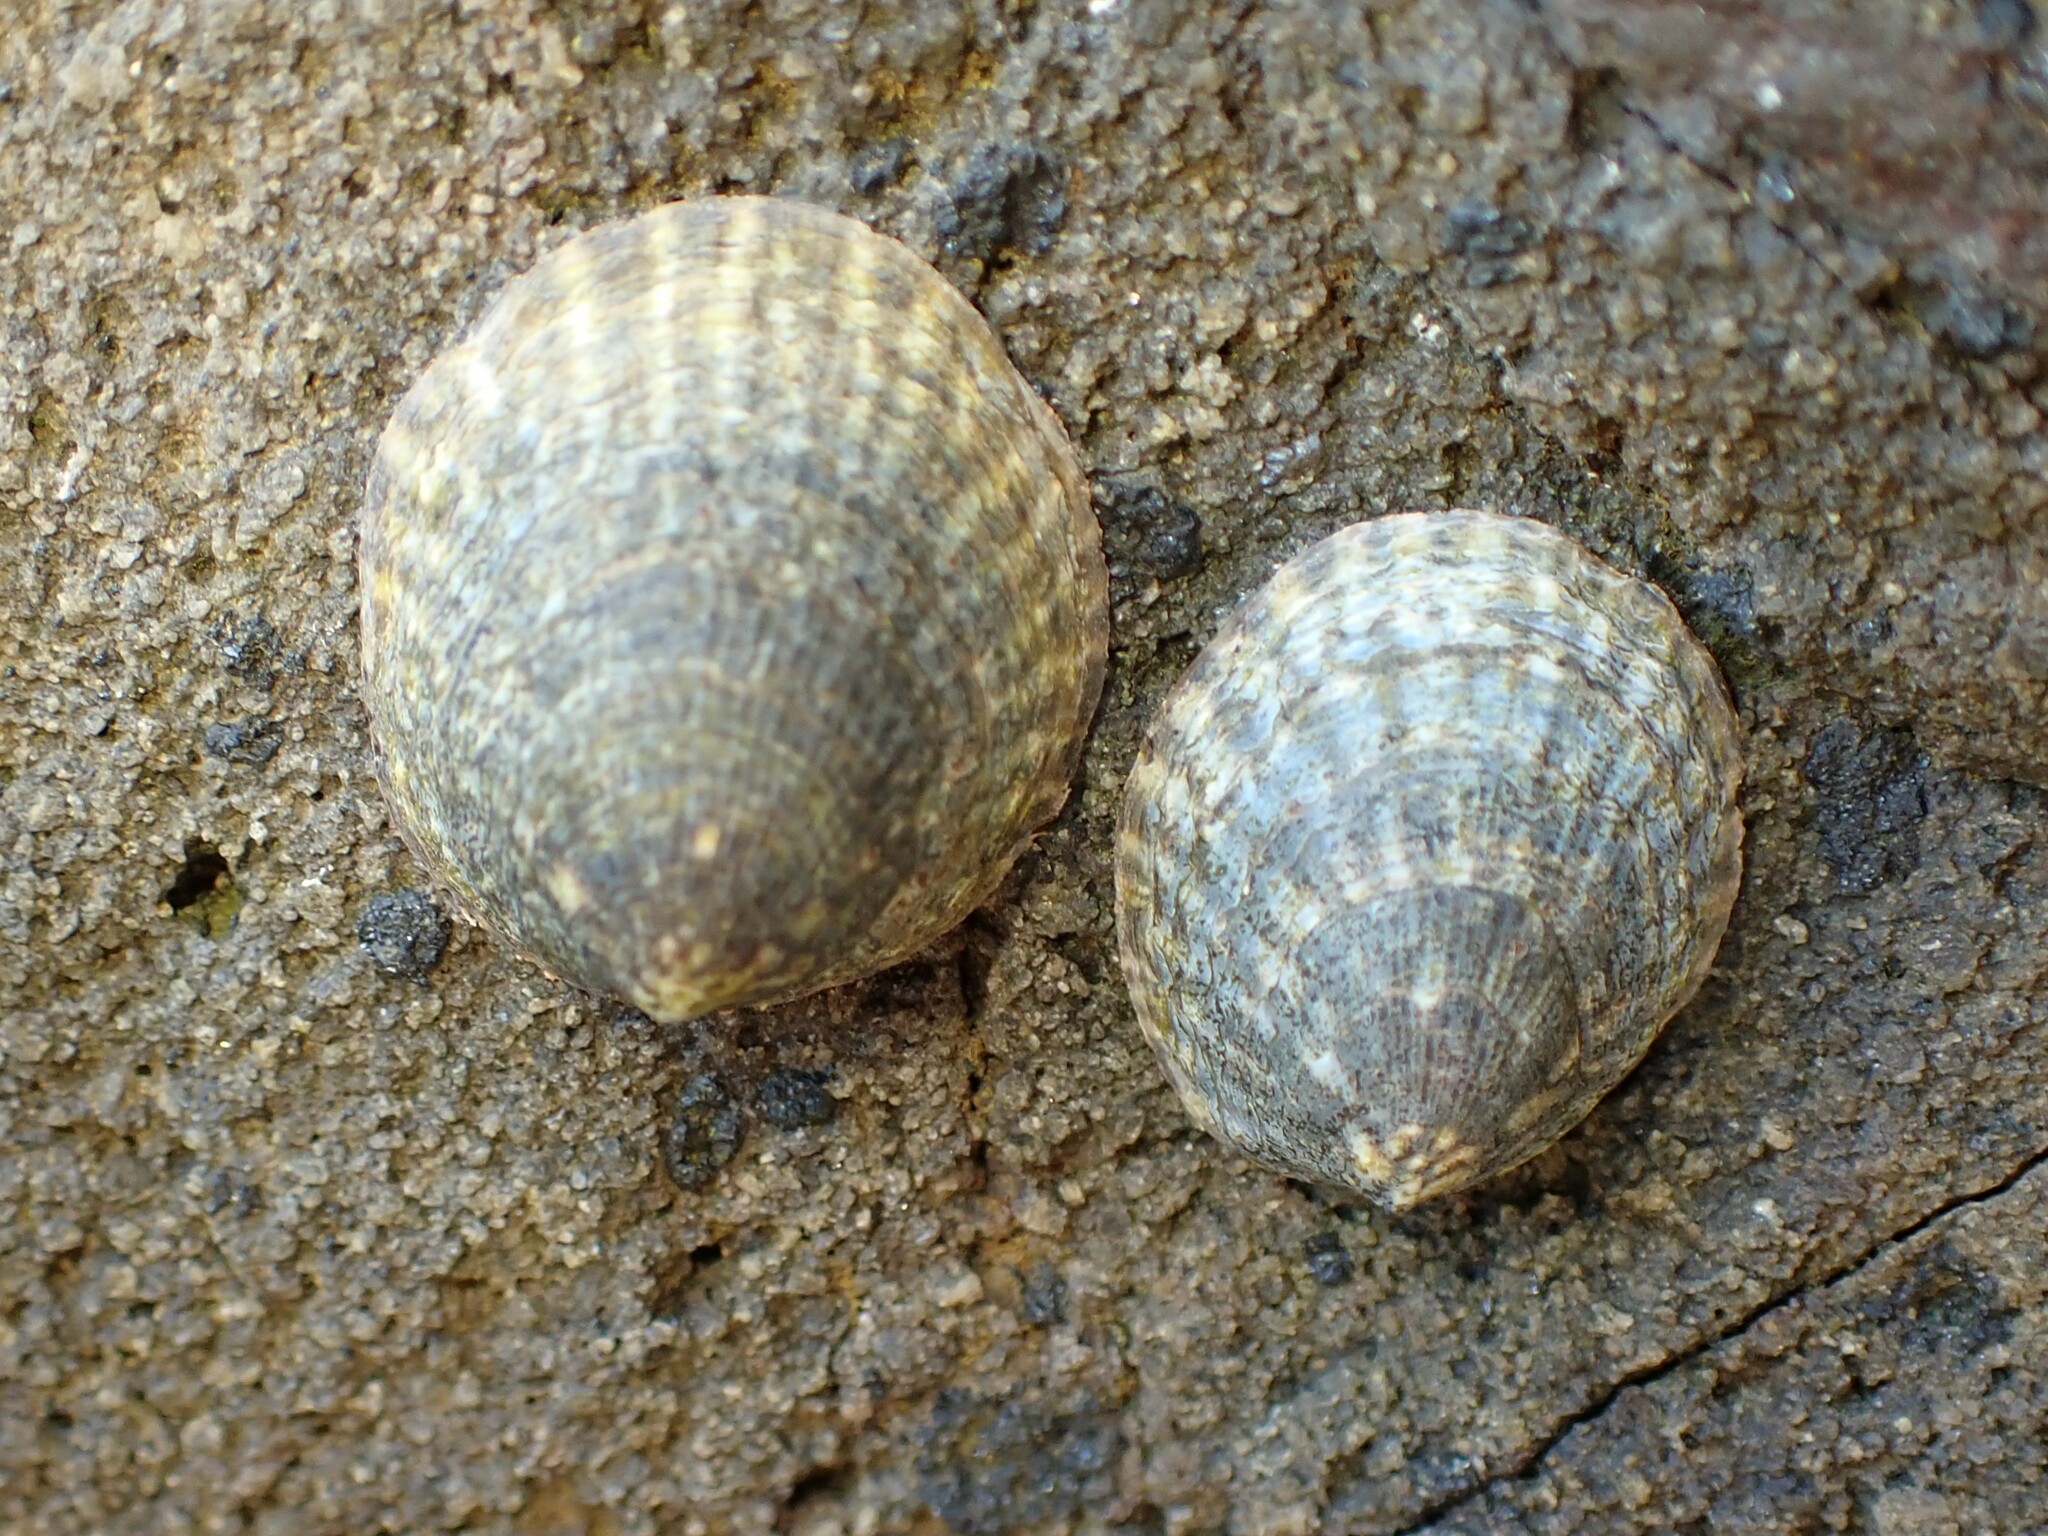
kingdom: Animalia
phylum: Mollusca
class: Gastropoda
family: Lottiidae
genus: Notoacmea
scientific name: Notoacmea pileopsis
